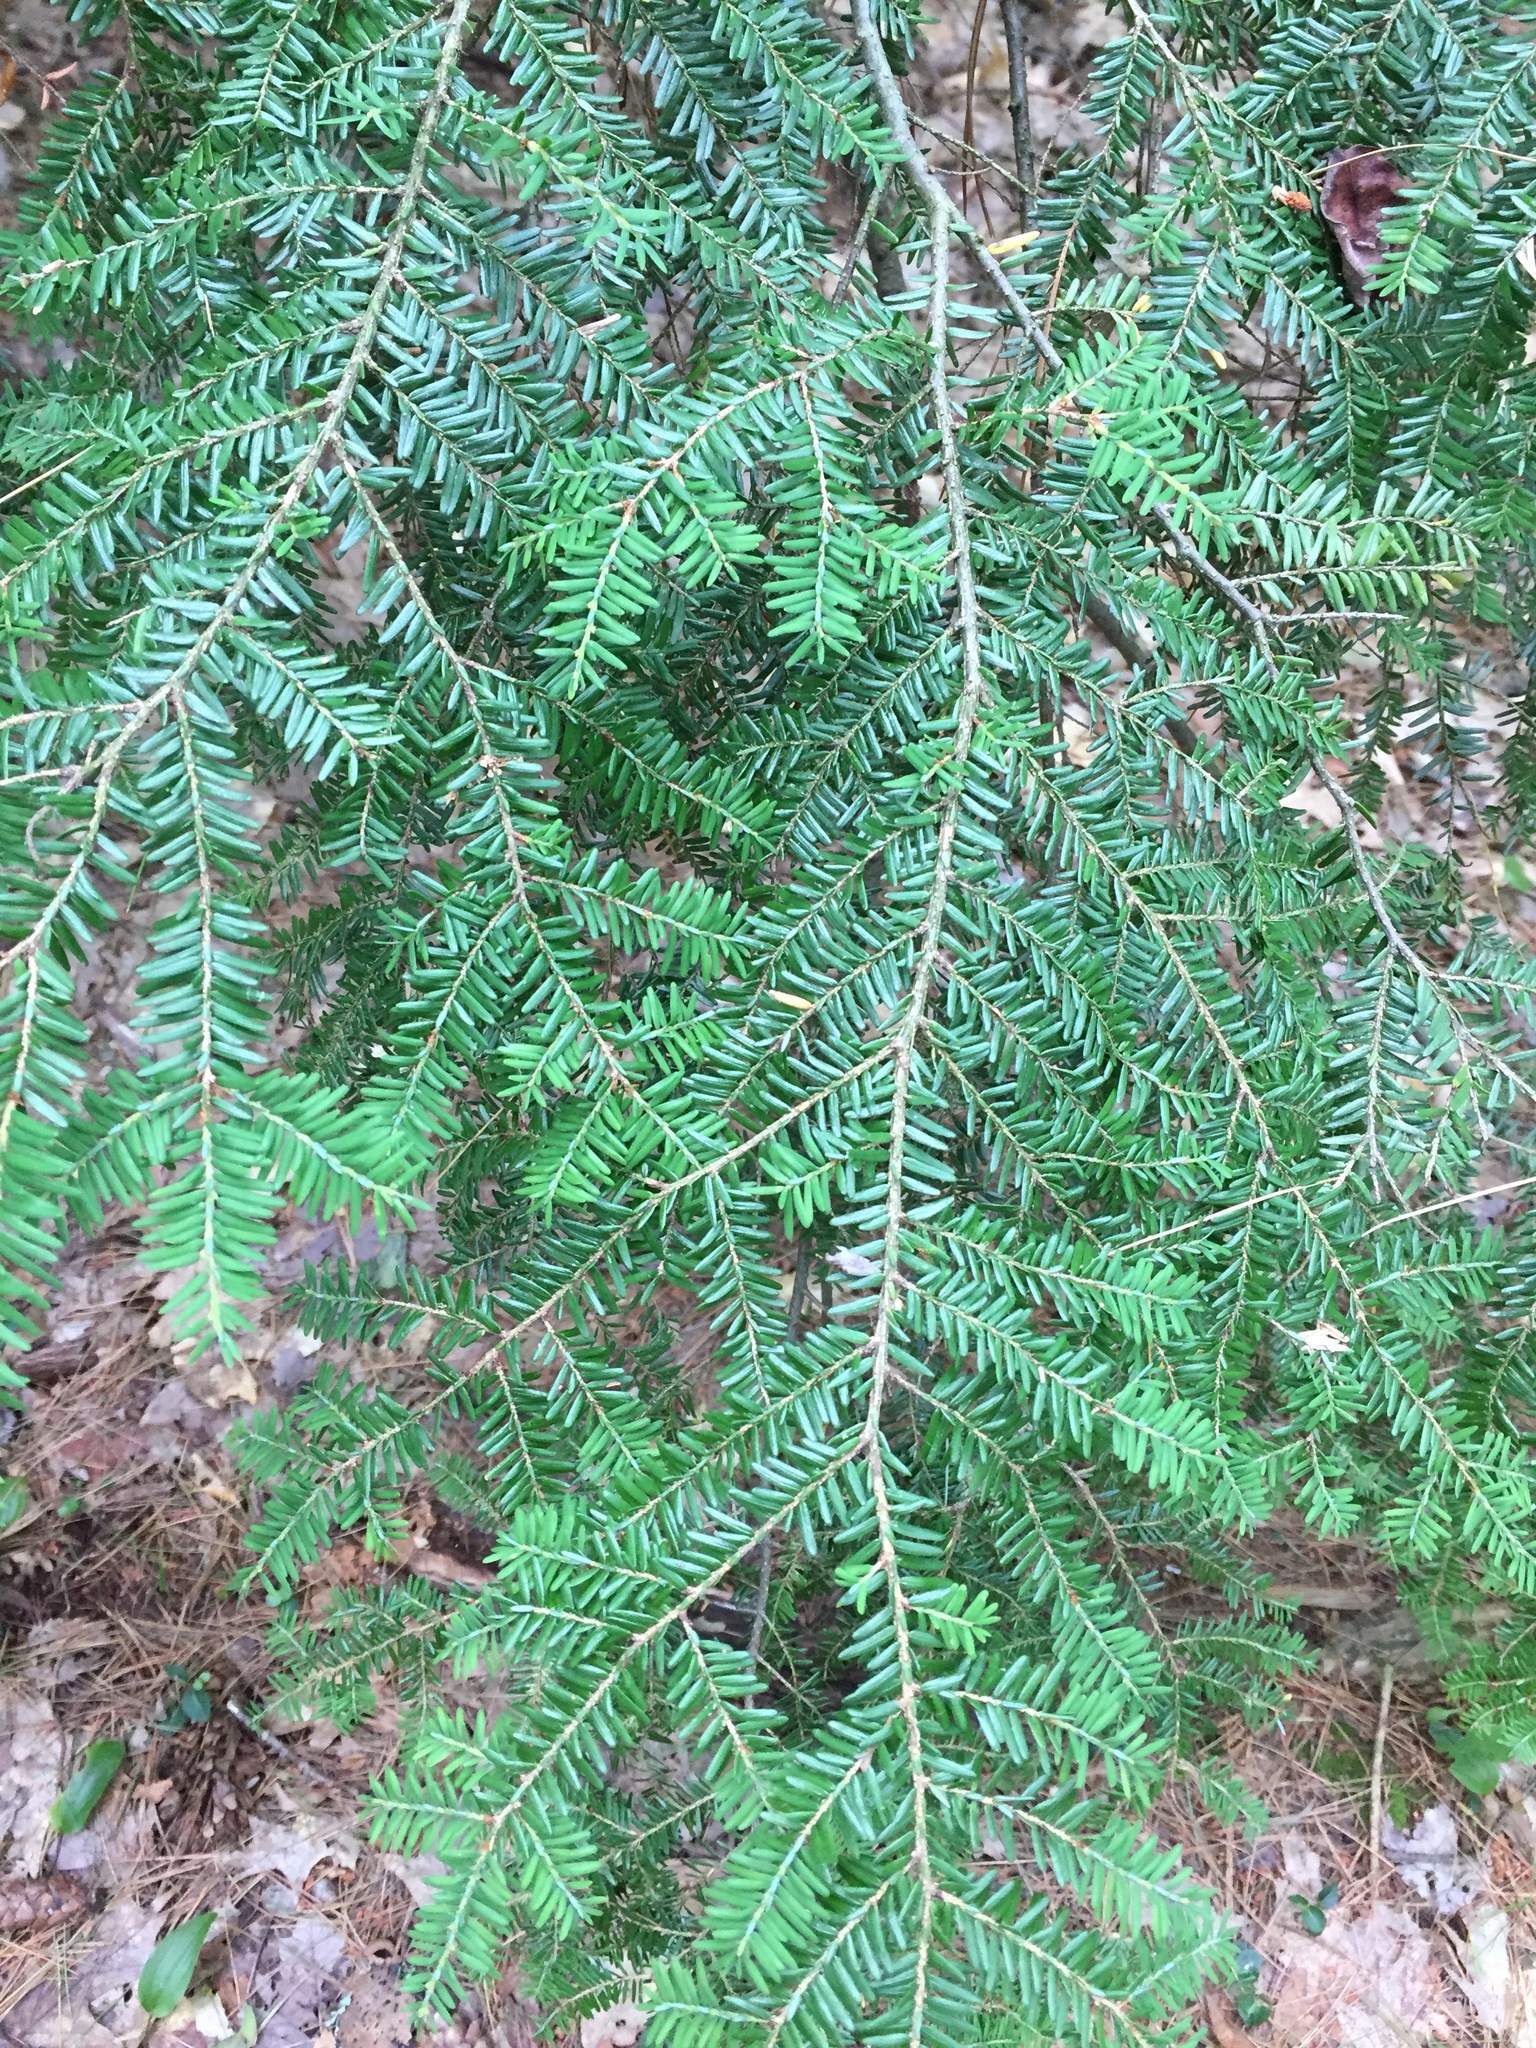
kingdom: Plantae
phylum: Tracheophyta
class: Pinopsida
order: Pinales
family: Pinaceae
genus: Tsuga
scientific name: Tsuga canadensis
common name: Eastern hemlock
